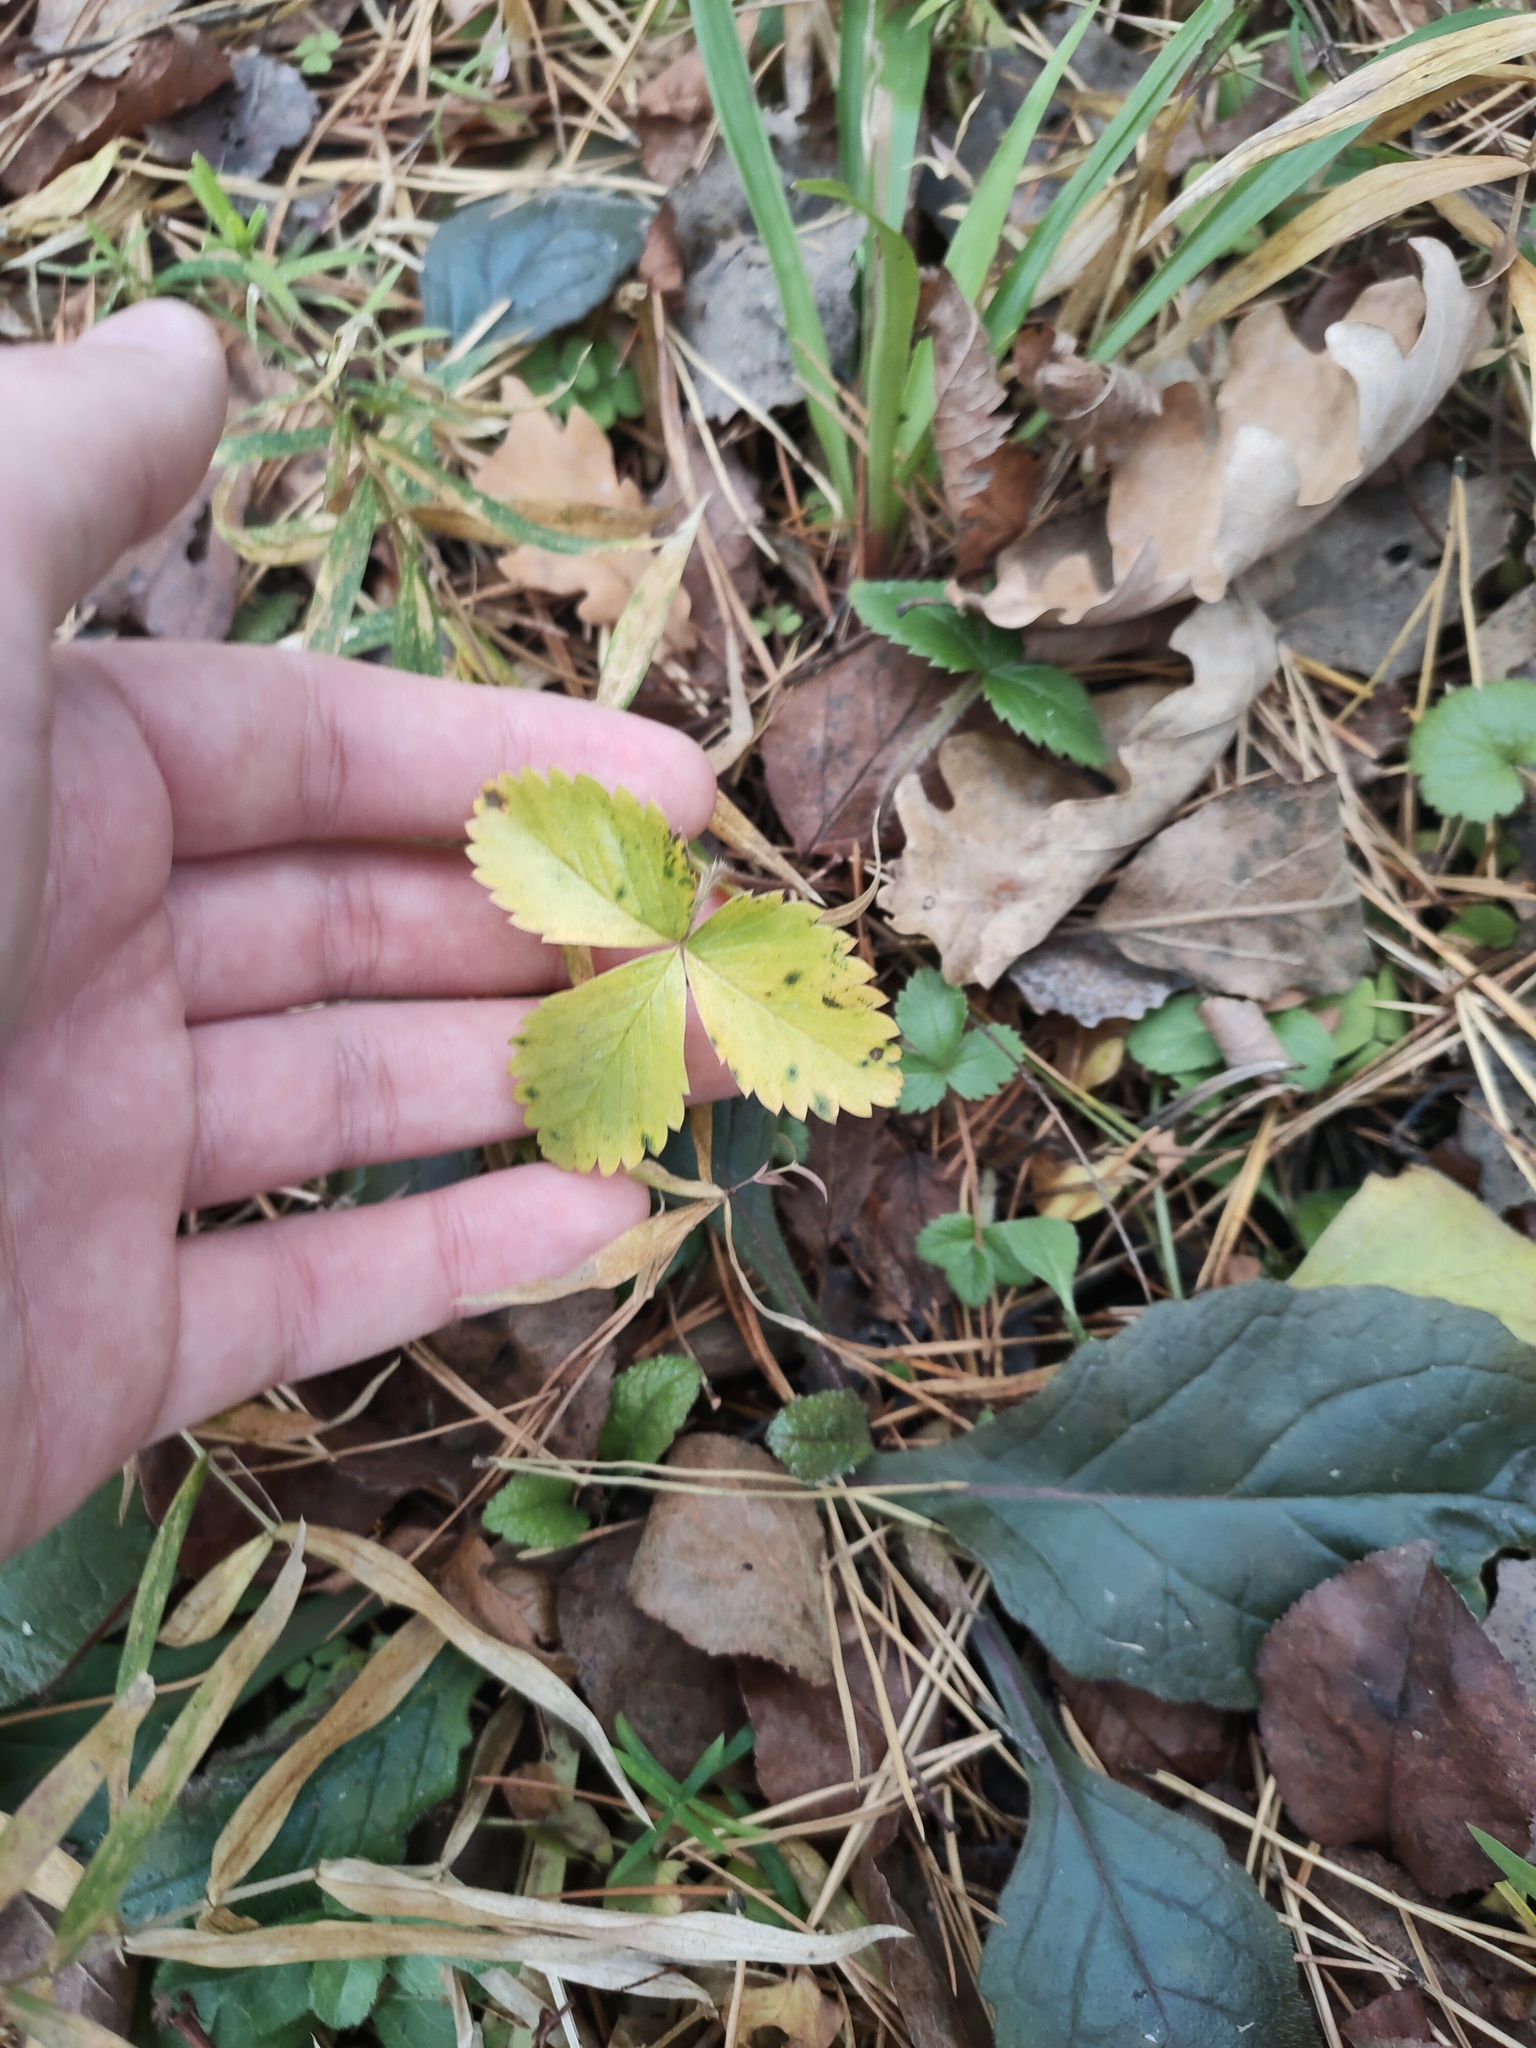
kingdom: Plantae
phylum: Tracheophyta
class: Magnoliopsida
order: Rosales
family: Rosaceae
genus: Fragaria
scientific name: Fragaria vesca
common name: Wild strawberry
